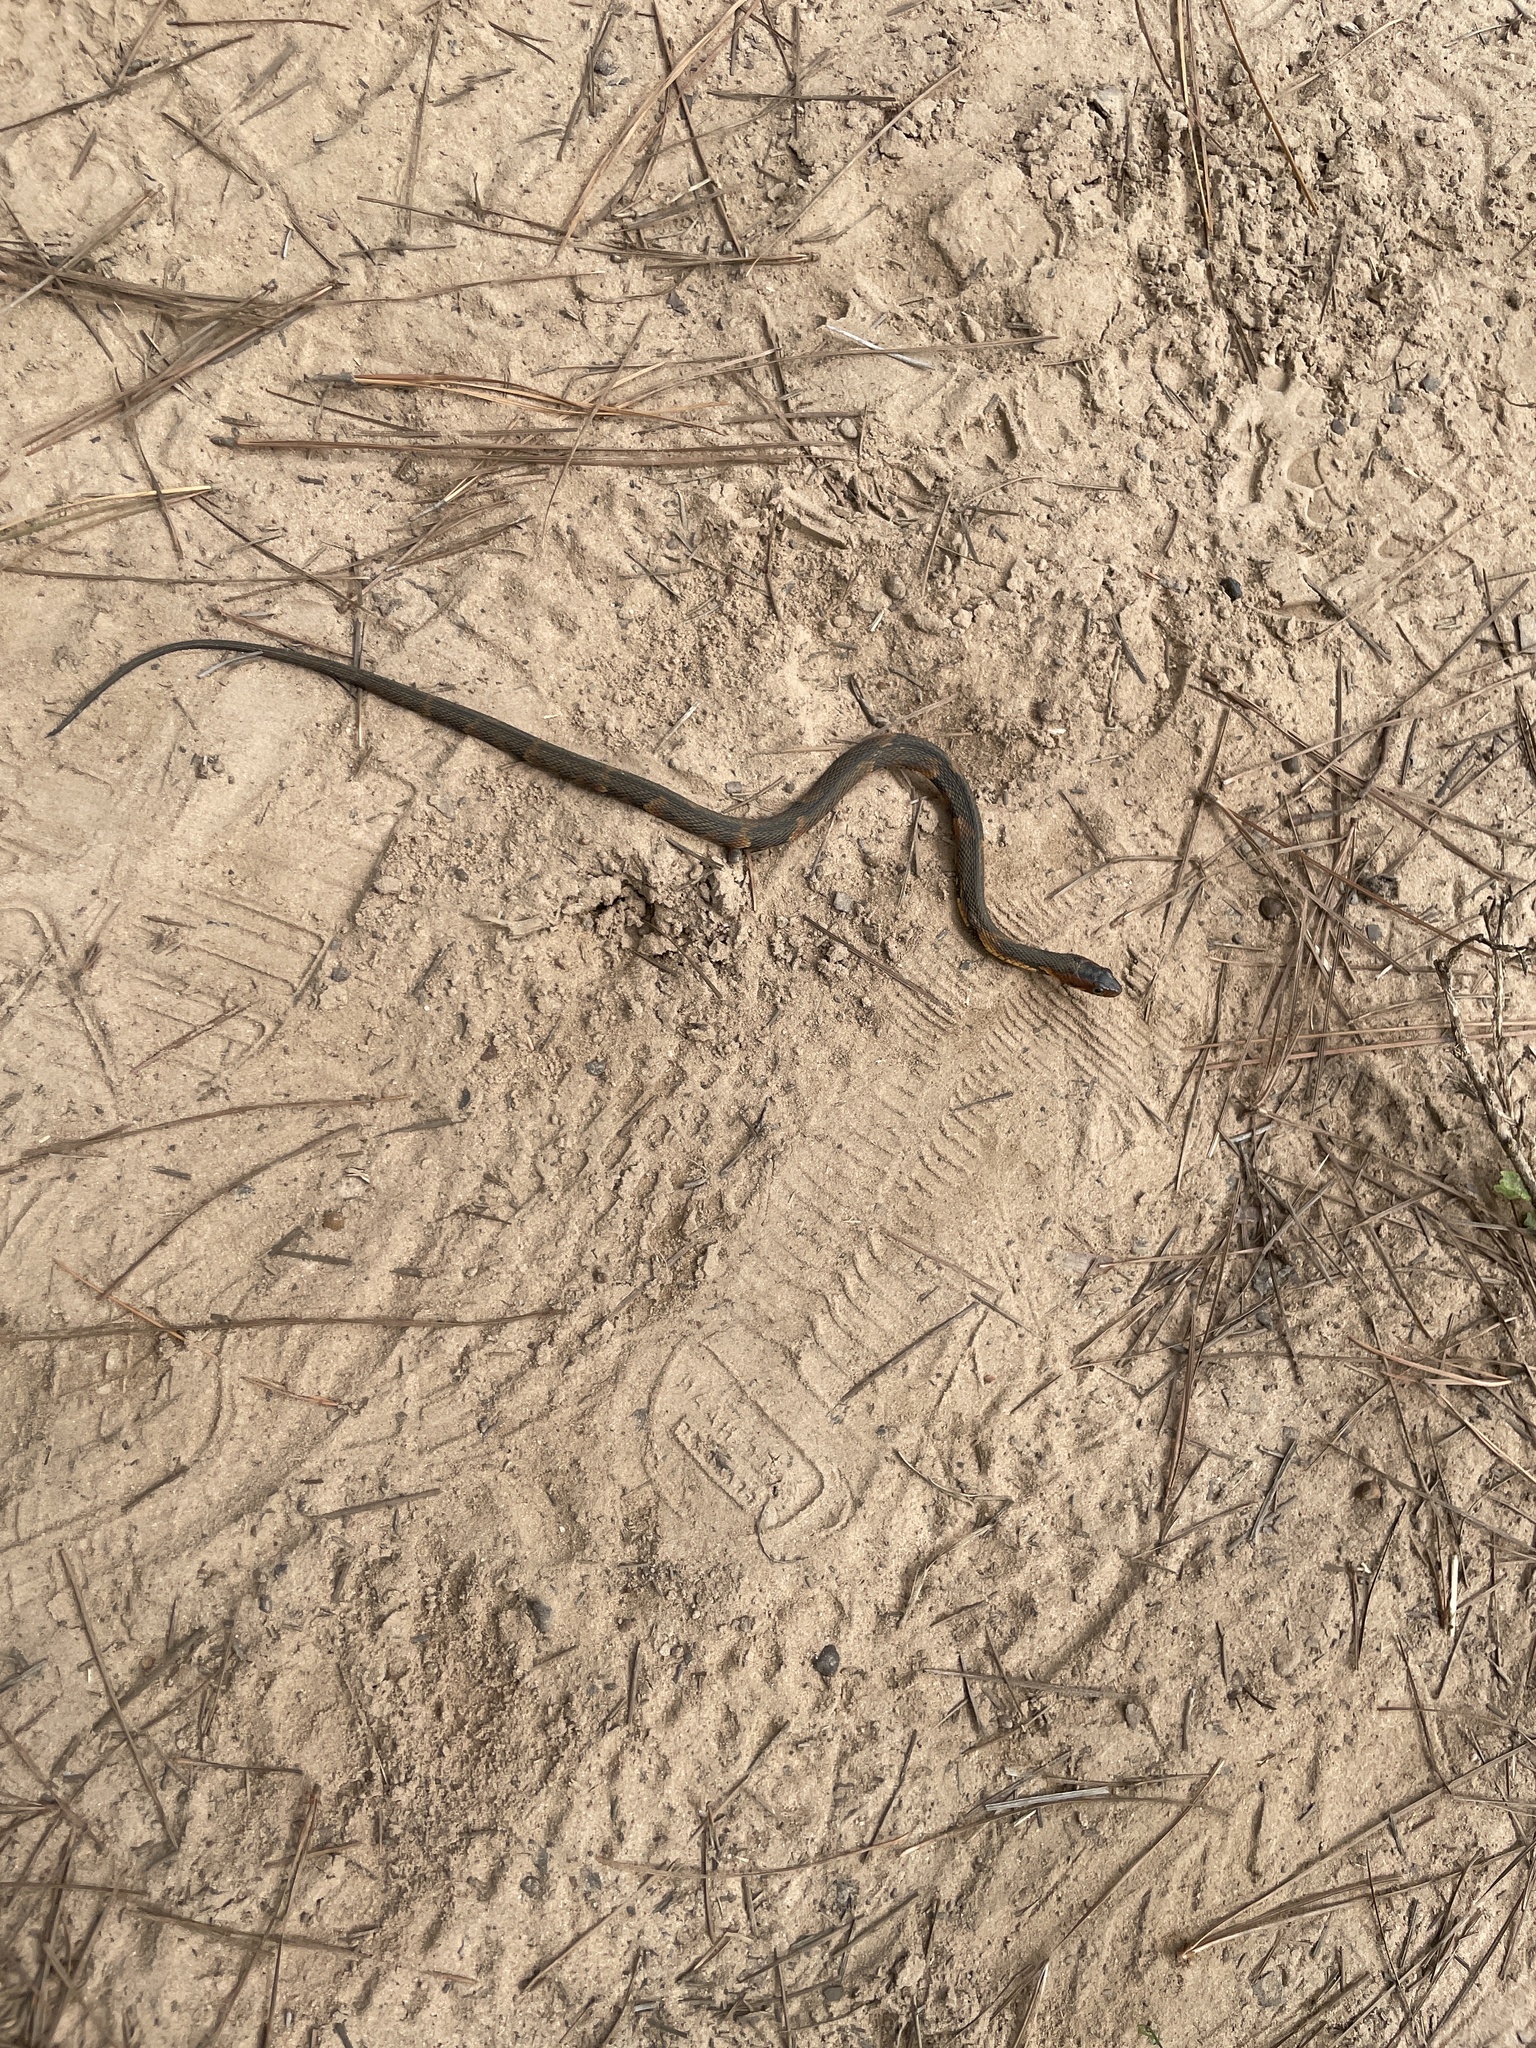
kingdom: Animalia
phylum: Chordata
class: Squamata
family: Colubridae
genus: Nerodia
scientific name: Nerodia fasciata
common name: Southern water snake
